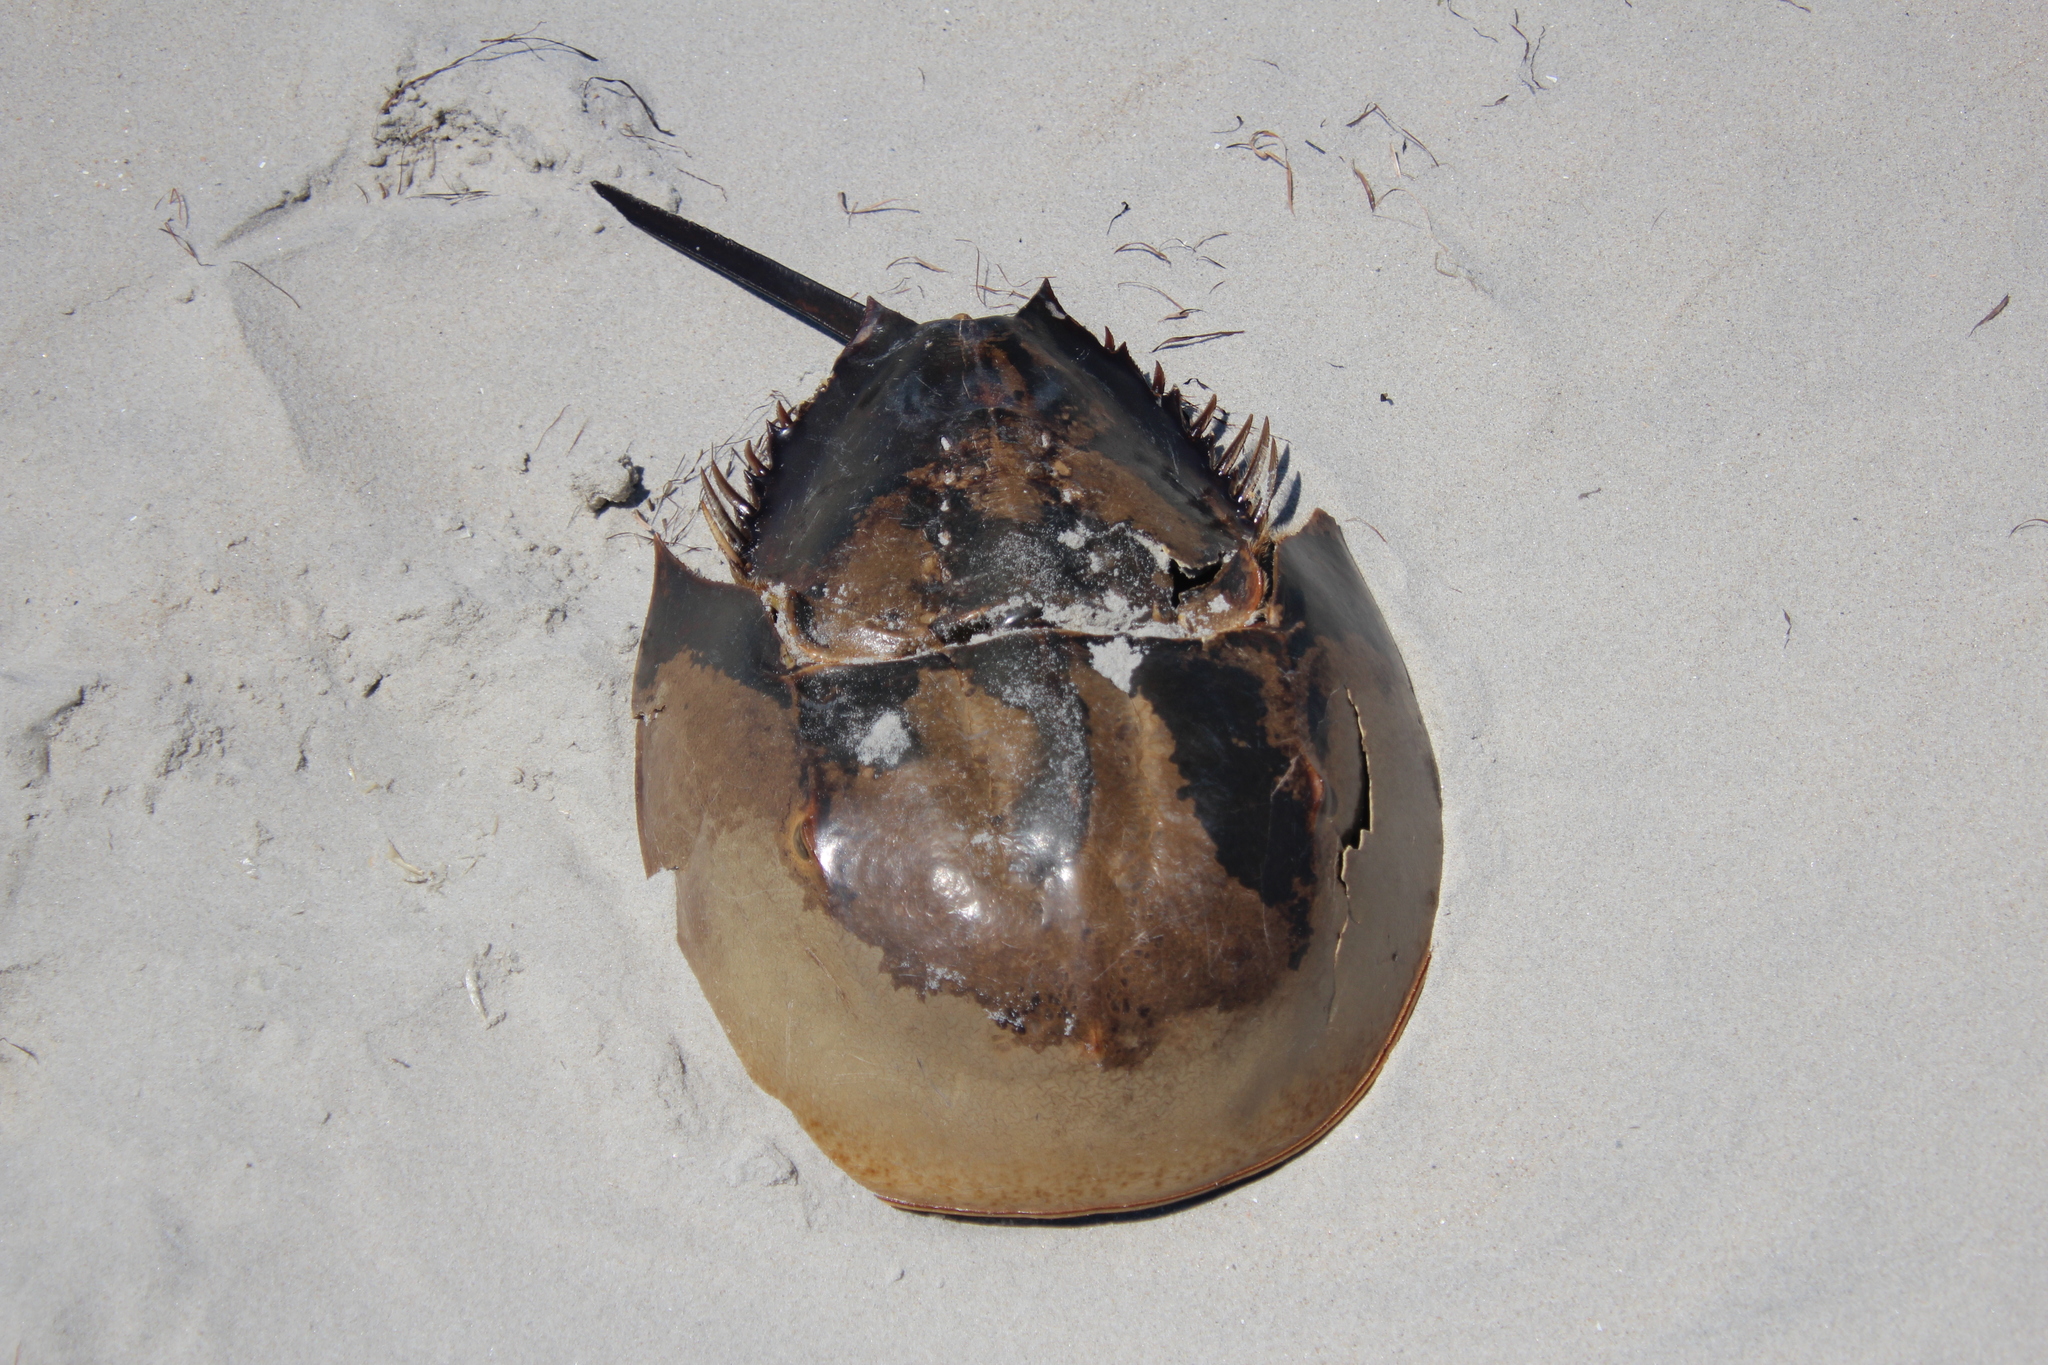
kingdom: Animalia
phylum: Arthropoda
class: Merostomata
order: Xiphosurida
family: Limulidae
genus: Limulus
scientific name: Limulus polyphemus
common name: Horseshoe crab
